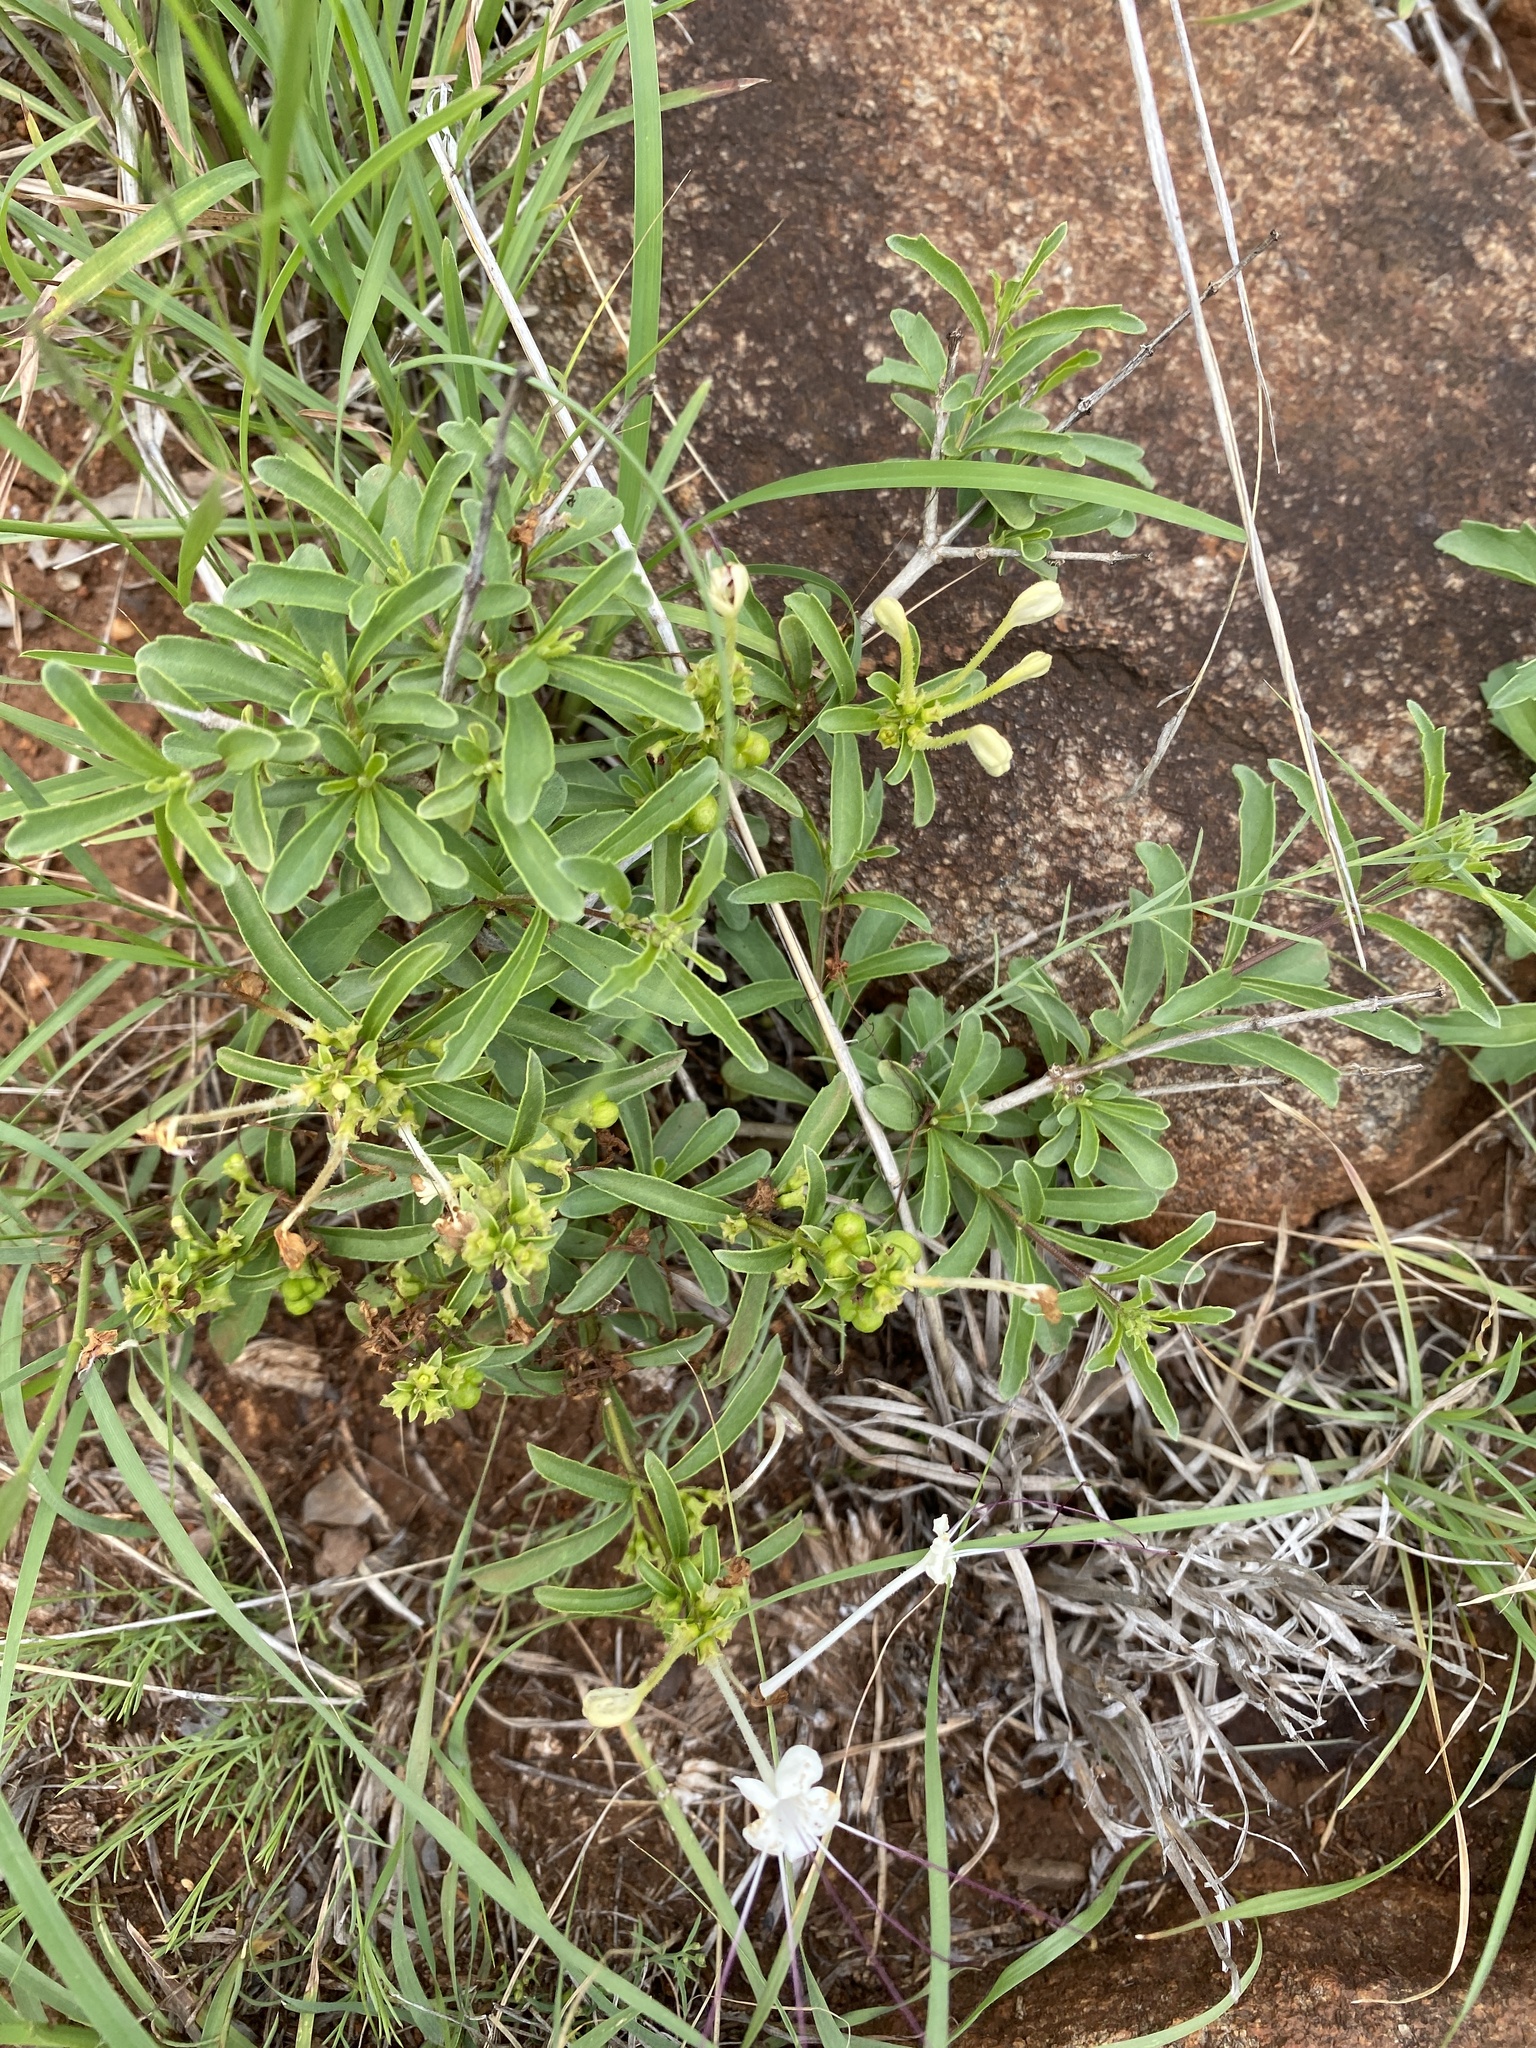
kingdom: Plantae
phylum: Tracheophyta
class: Magnoliopsida
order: Lamiales
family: Lamiaceae
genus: Clerodendrum
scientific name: Clerodendrum ternatum
